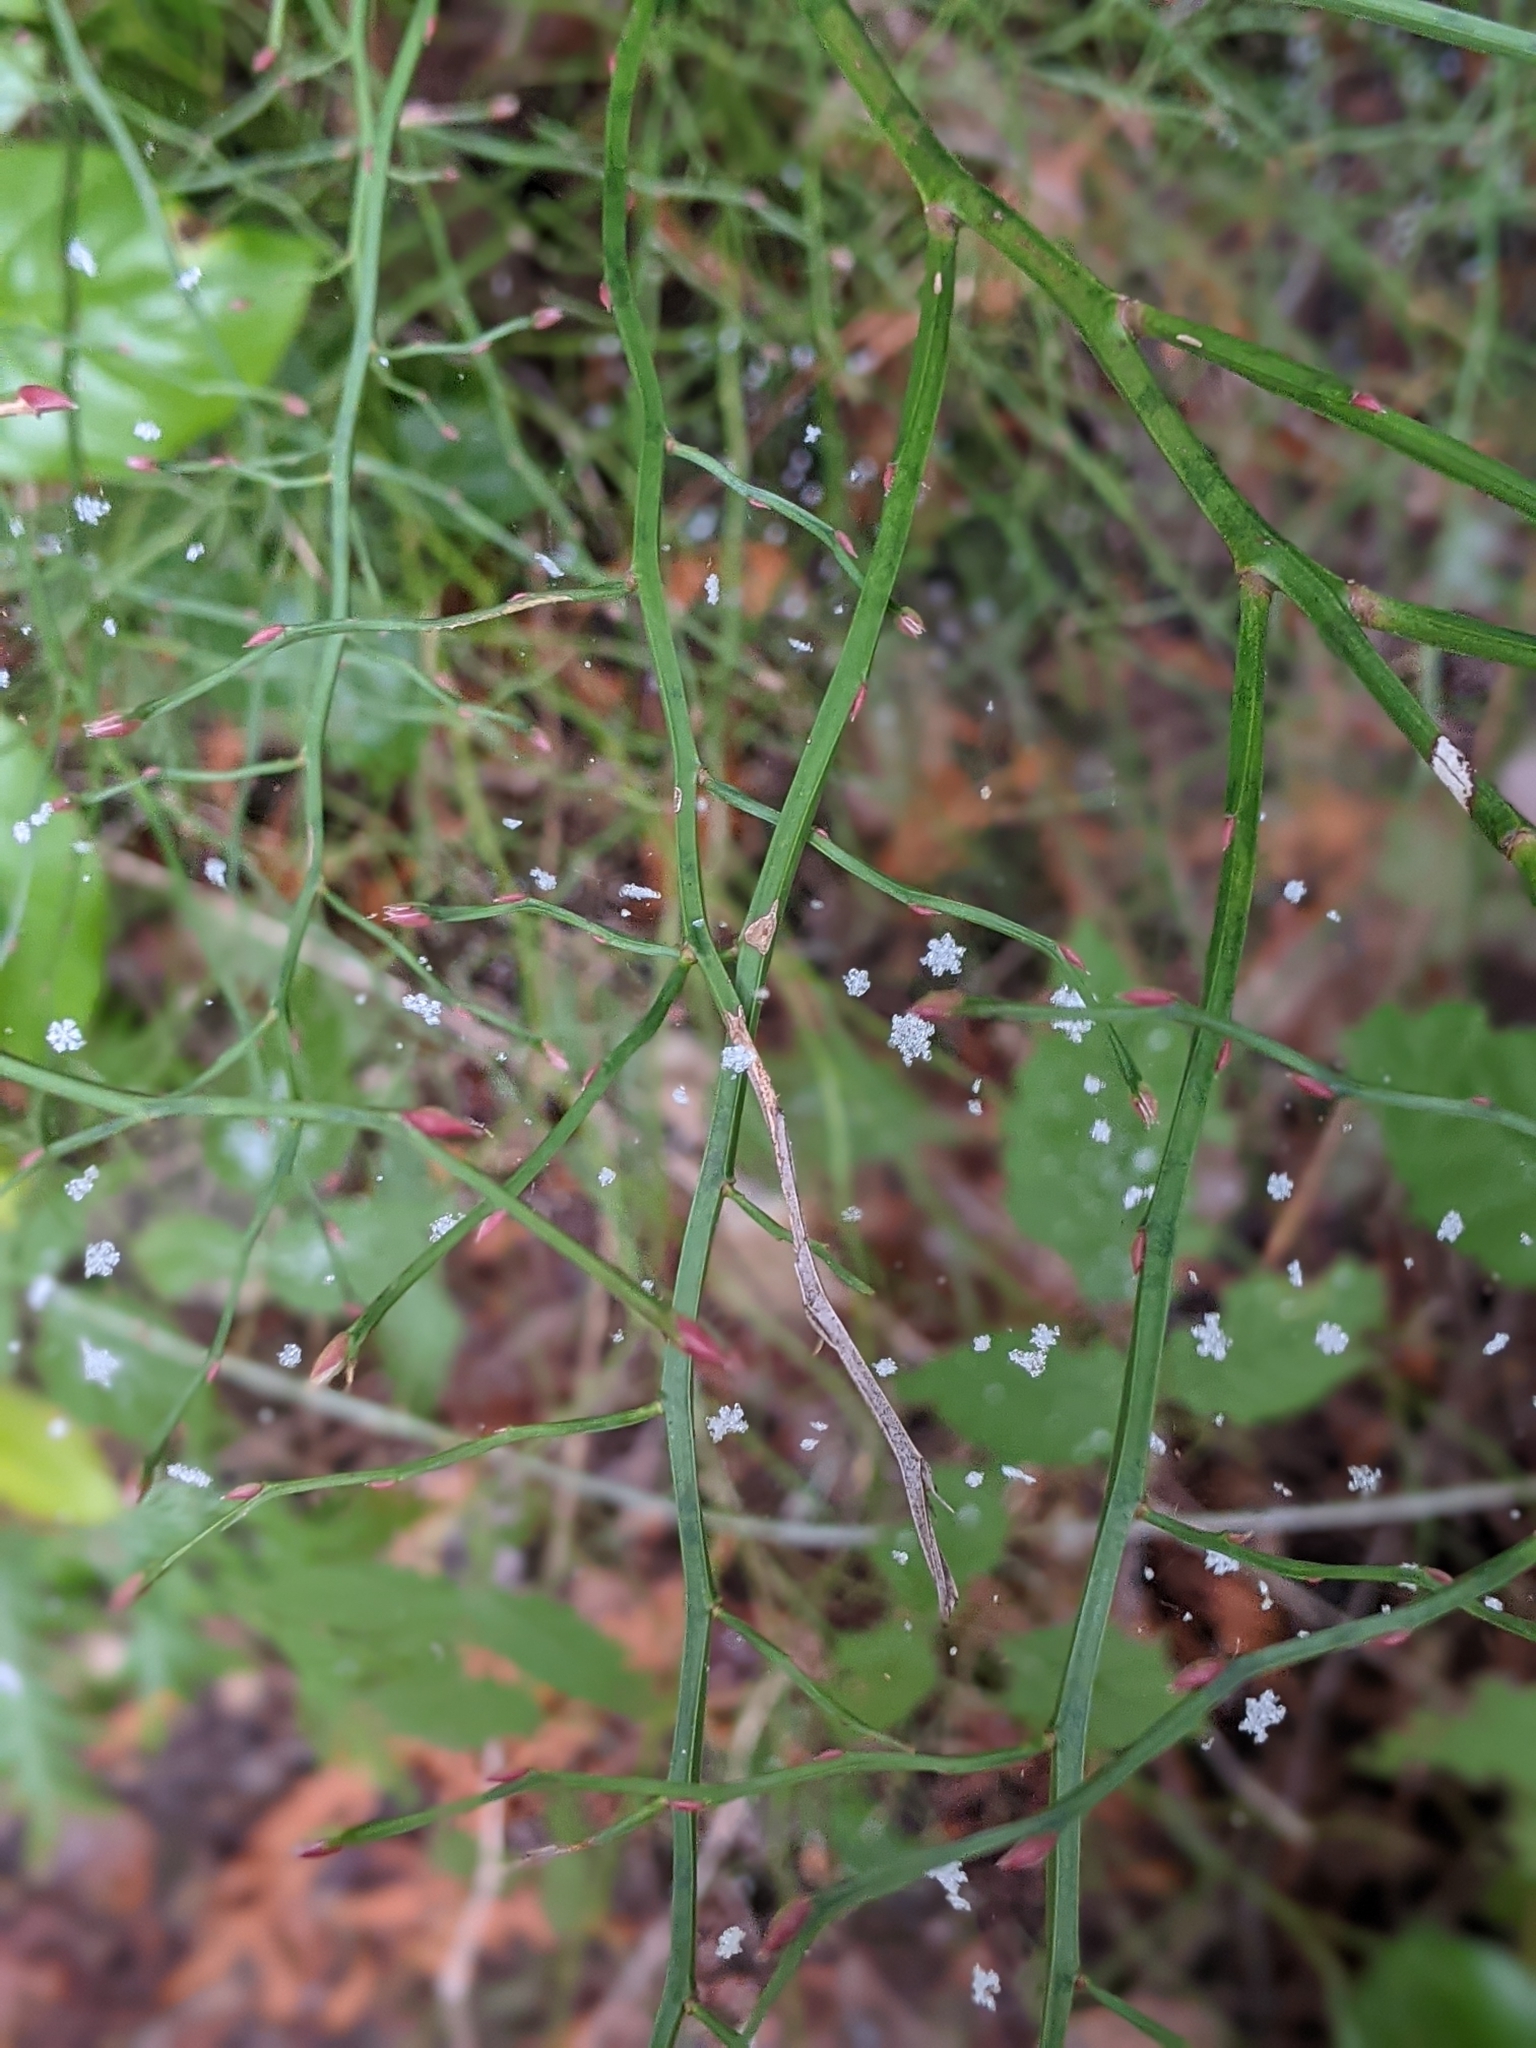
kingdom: Plantae
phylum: Tracheophyta
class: Magnoliopsida
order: Ericales
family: Ericaceae
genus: Vaccinium
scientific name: Vaccinium parvifolium
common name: Red-huckleberry
